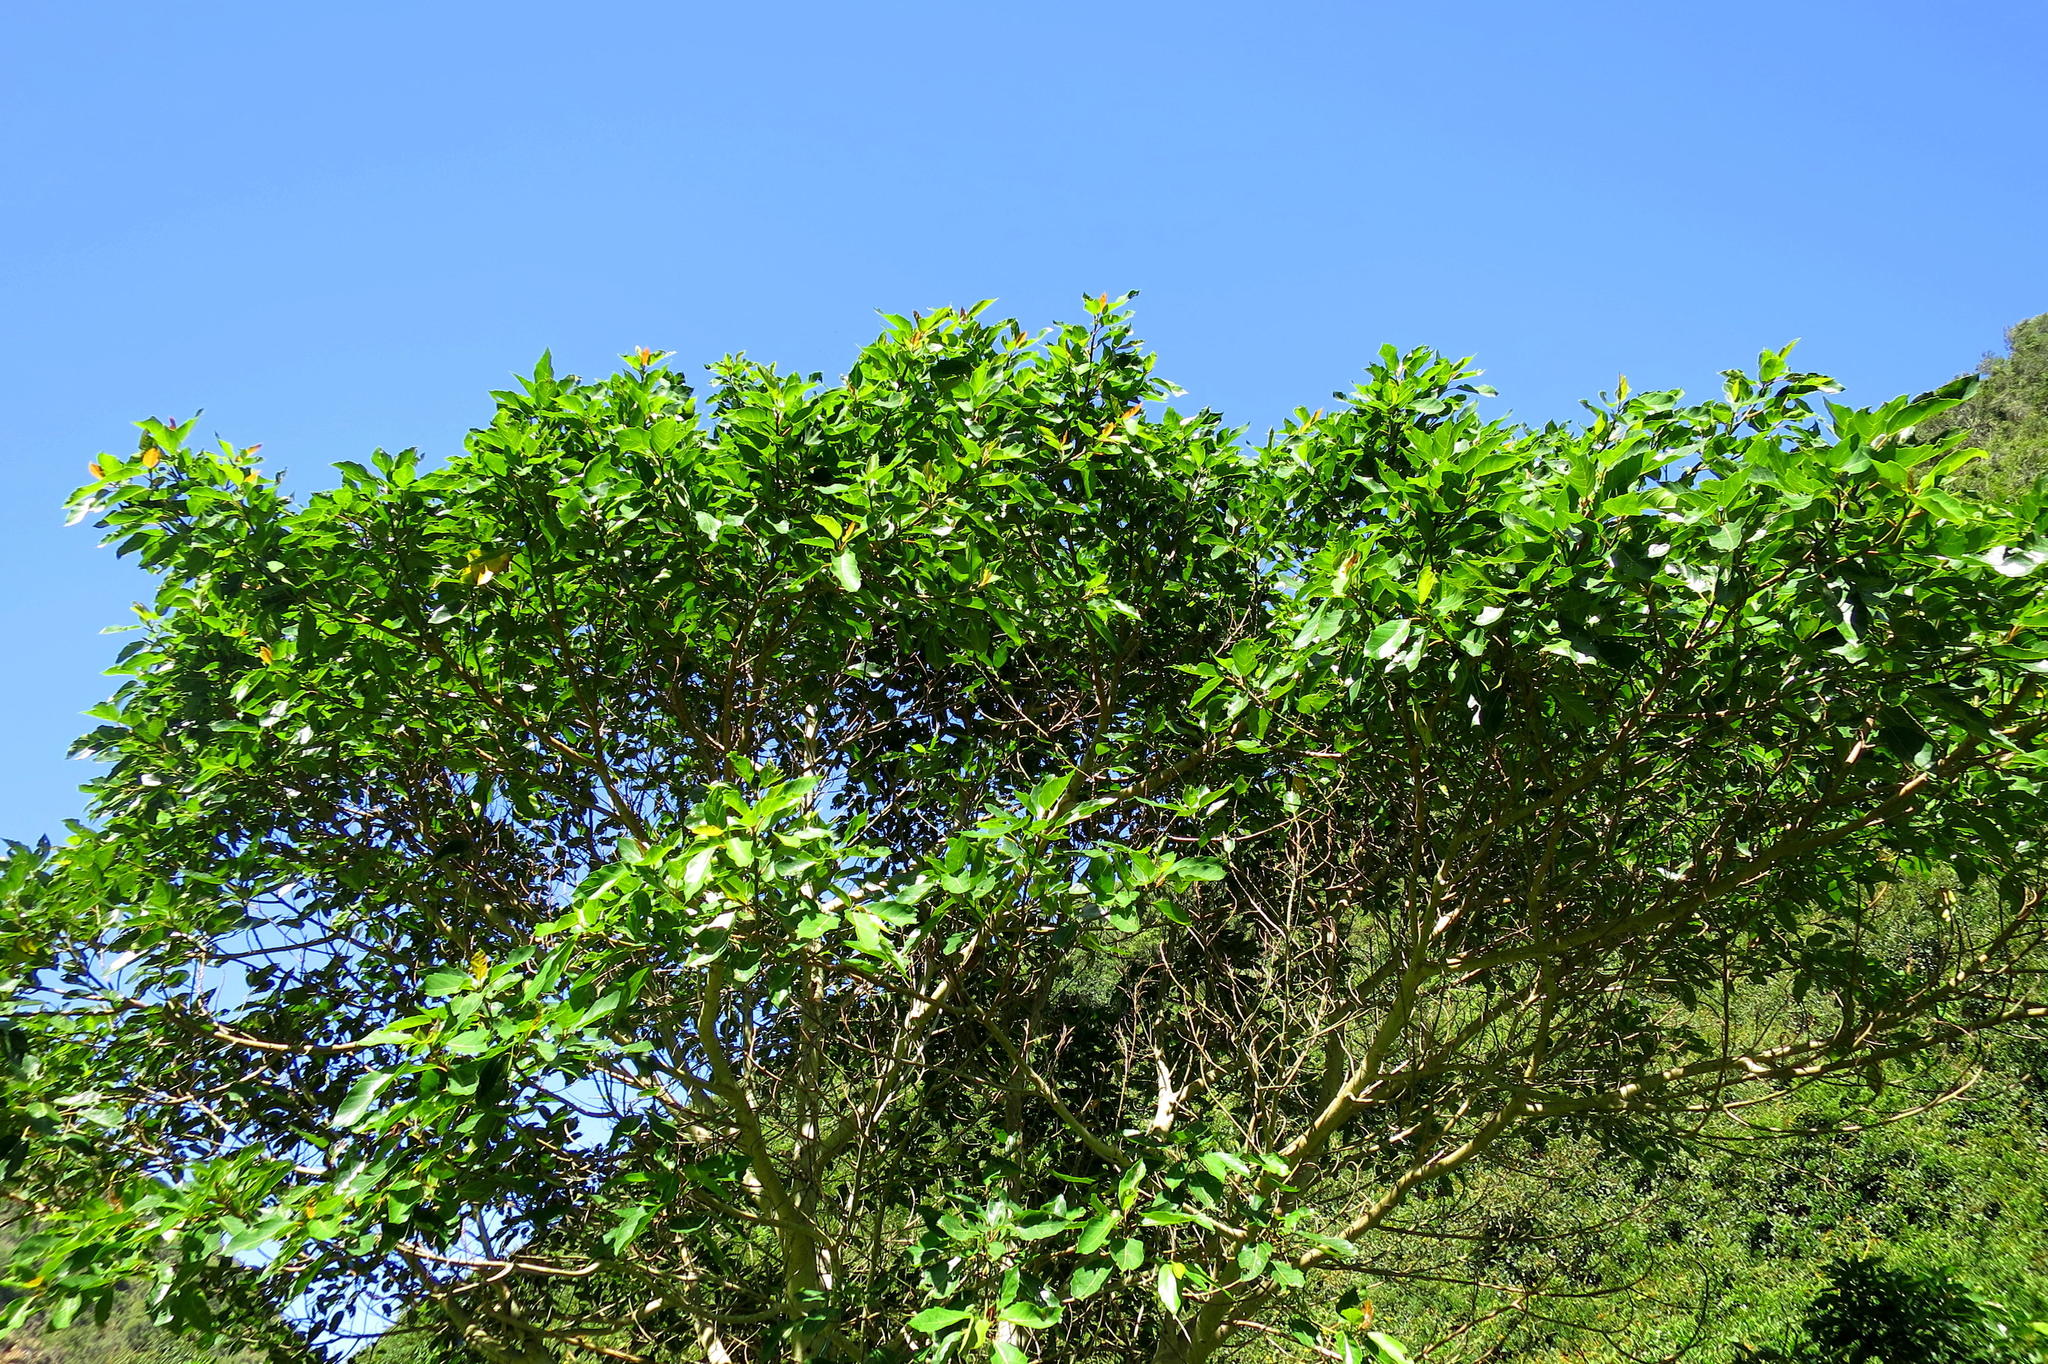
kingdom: Plantae
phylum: Tracheophyta
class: Magnoliopsida
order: Rosales
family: Moraceae
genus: Ficus
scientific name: Ficus sur
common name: Cape fig
